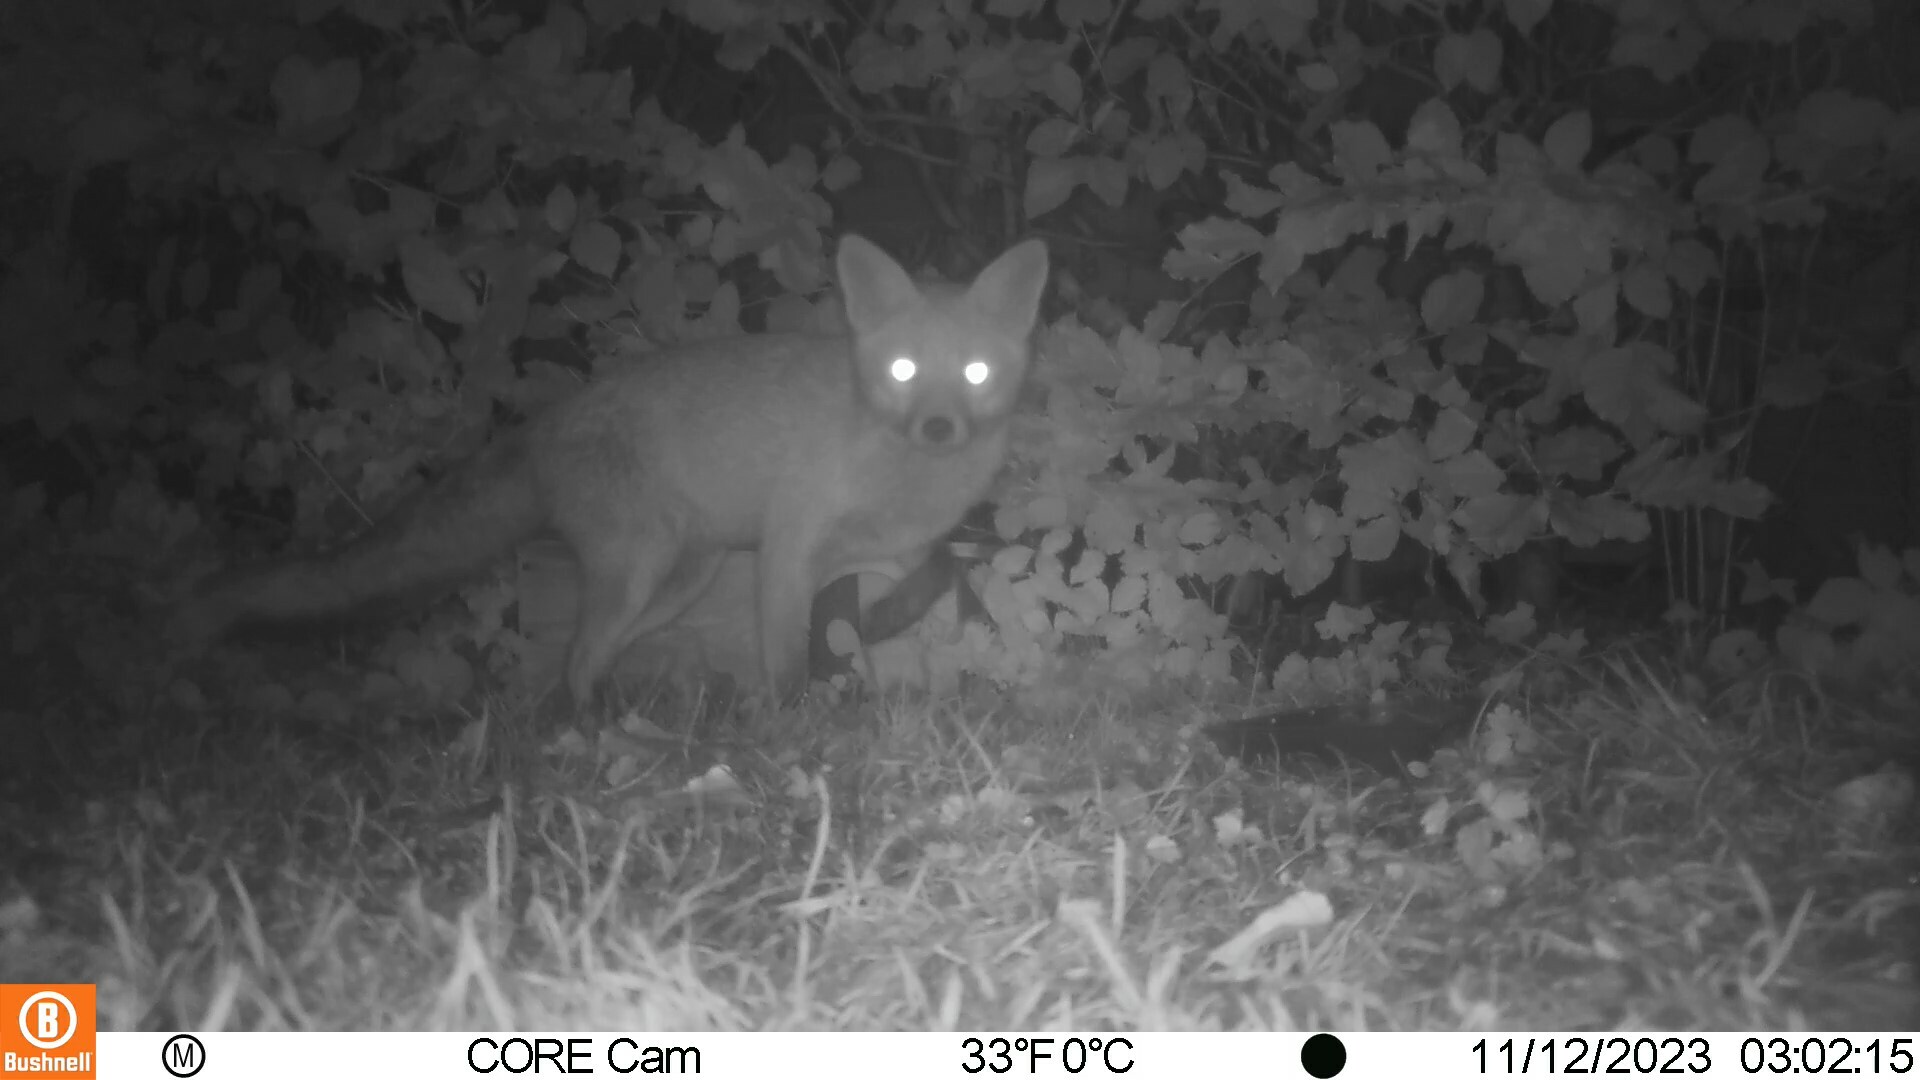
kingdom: Animalia
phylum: Chordata
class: Mammalia
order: Carnivora
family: Canidae
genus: Vulpes
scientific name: Vulpes vulpes
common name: Red fox
